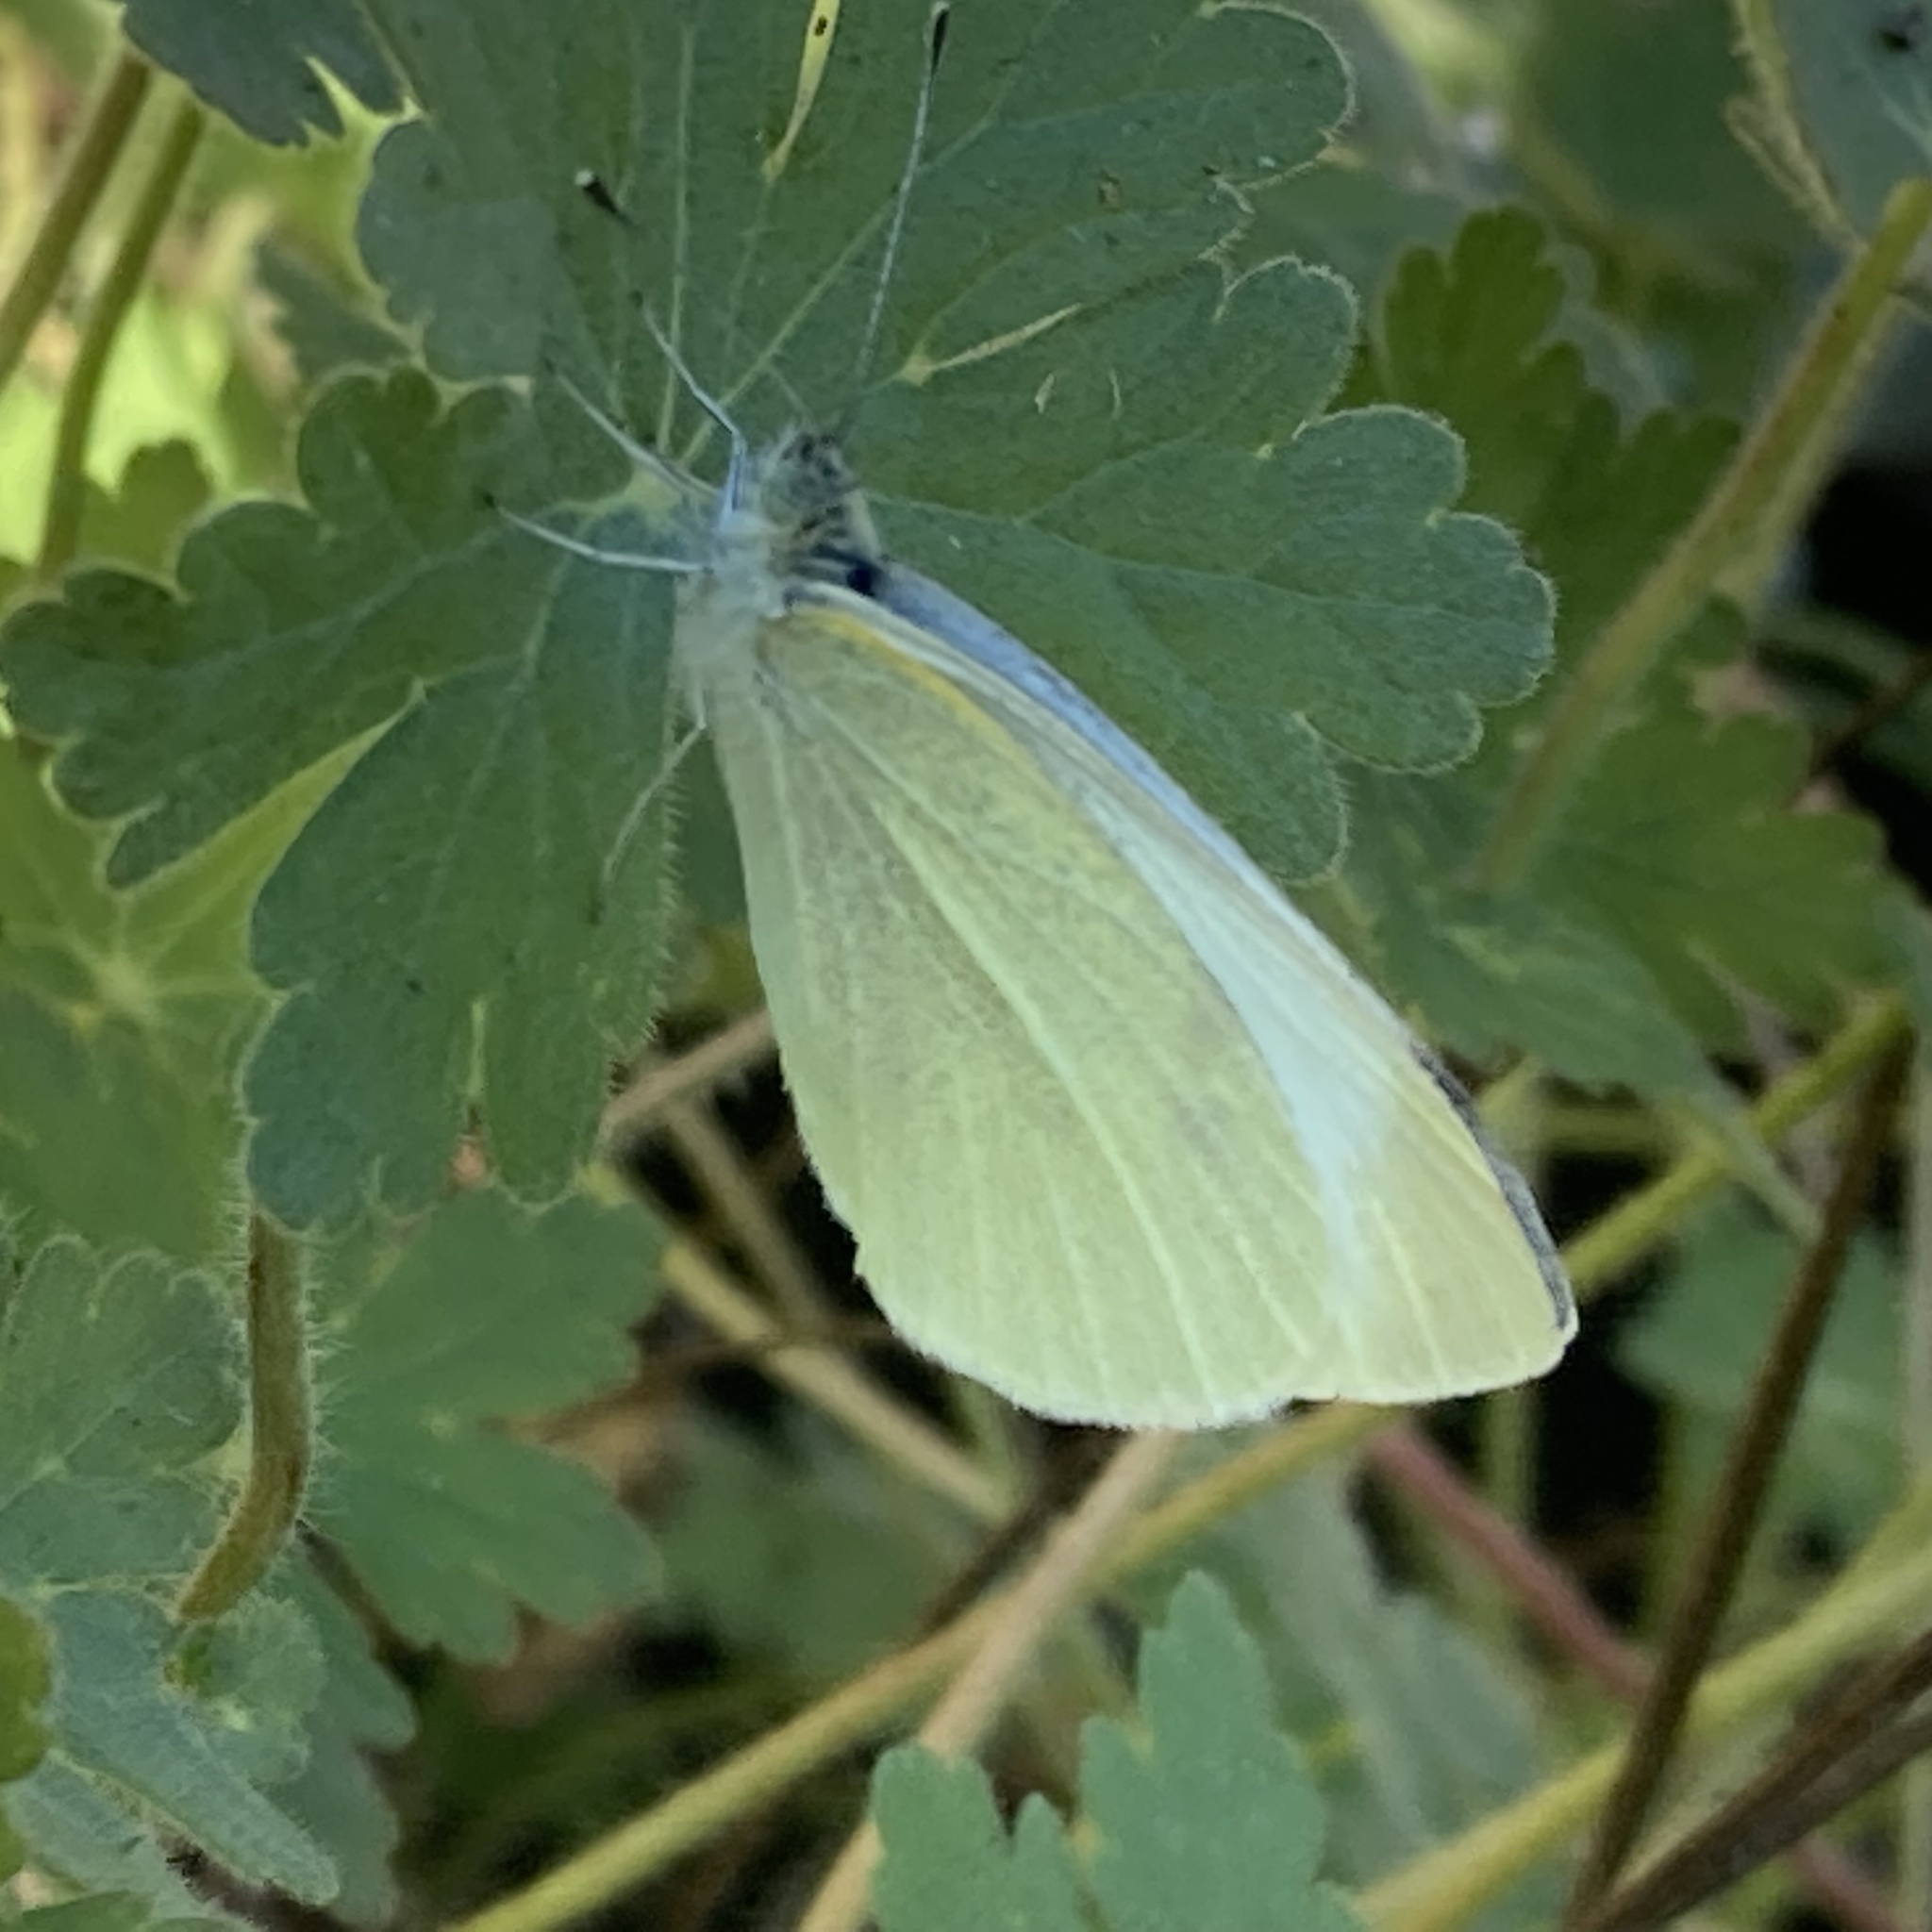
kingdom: Animalia
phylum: Arthropoda
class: Insecta
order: Lepidoptera
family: Pieridae
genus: Pieris
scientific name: Pieris rapae
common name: Small white
